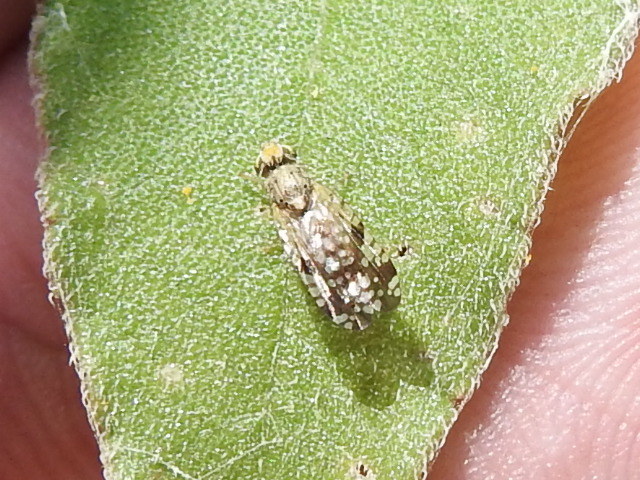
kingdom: Animalia
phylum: Arthropoda
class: Insecta
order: Diptera
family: Tephritidae
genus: Neotephritis
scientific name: Neotephritis finalis
